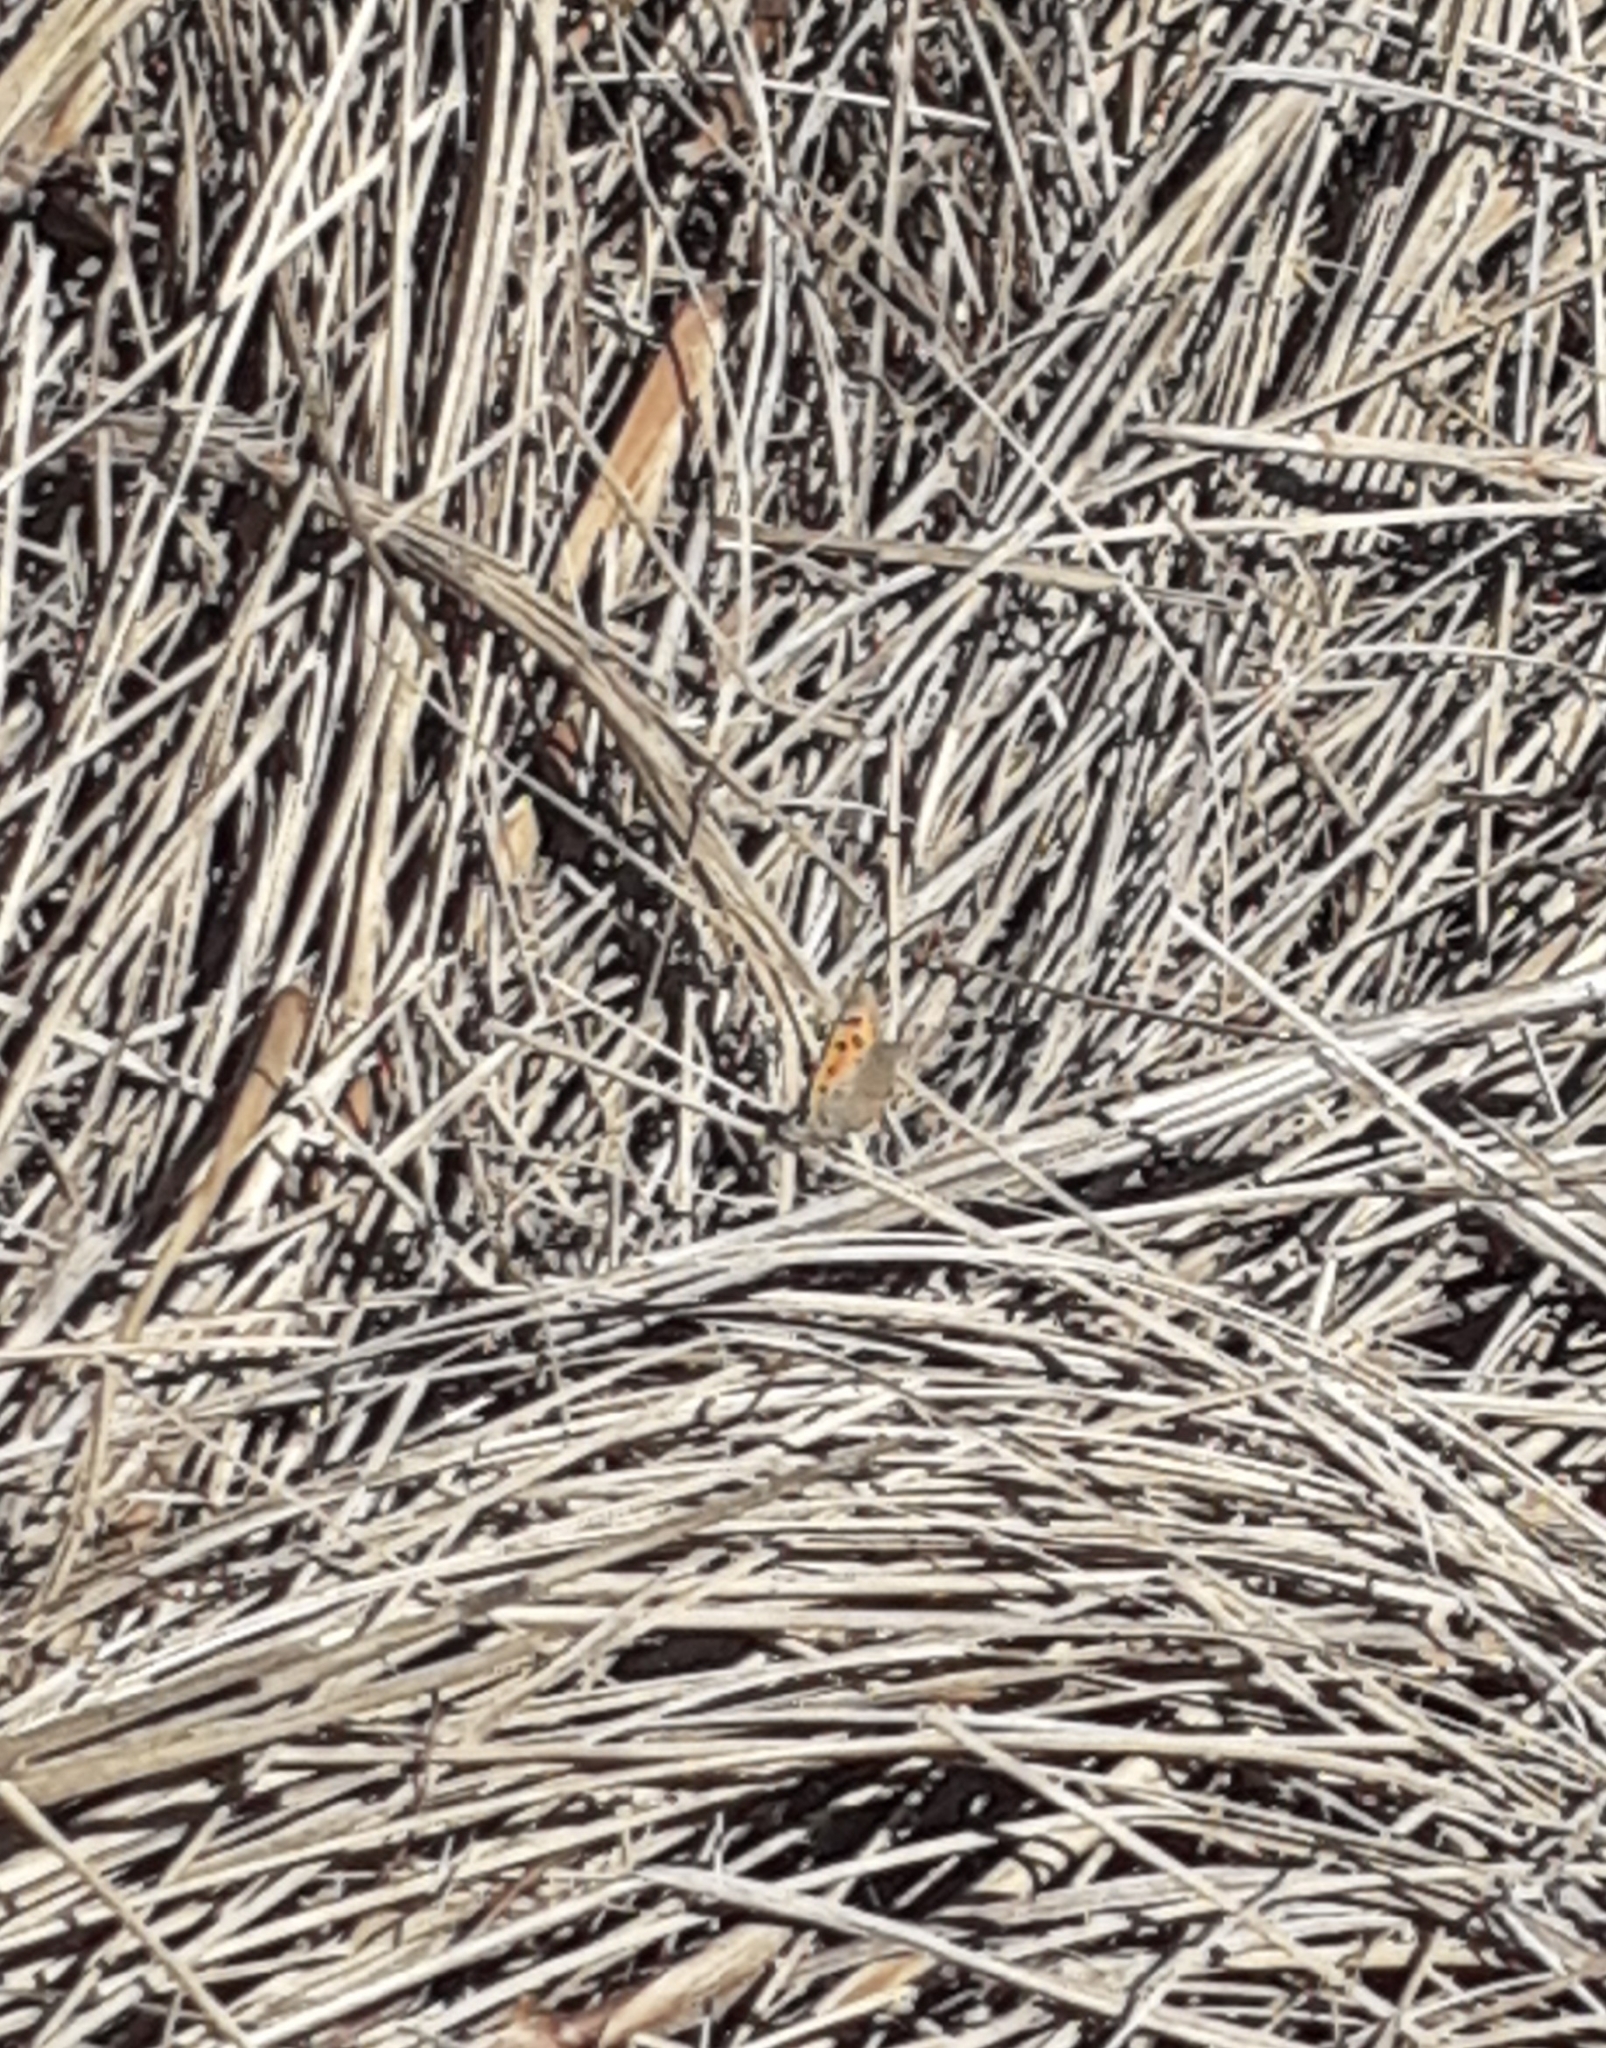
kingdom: Animalia
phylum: Arthropoda
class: Insecta
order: Lepidoptera
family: Lycaenidae
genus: Lycaena
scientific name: Lycaena phlaeas
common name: Small copper
